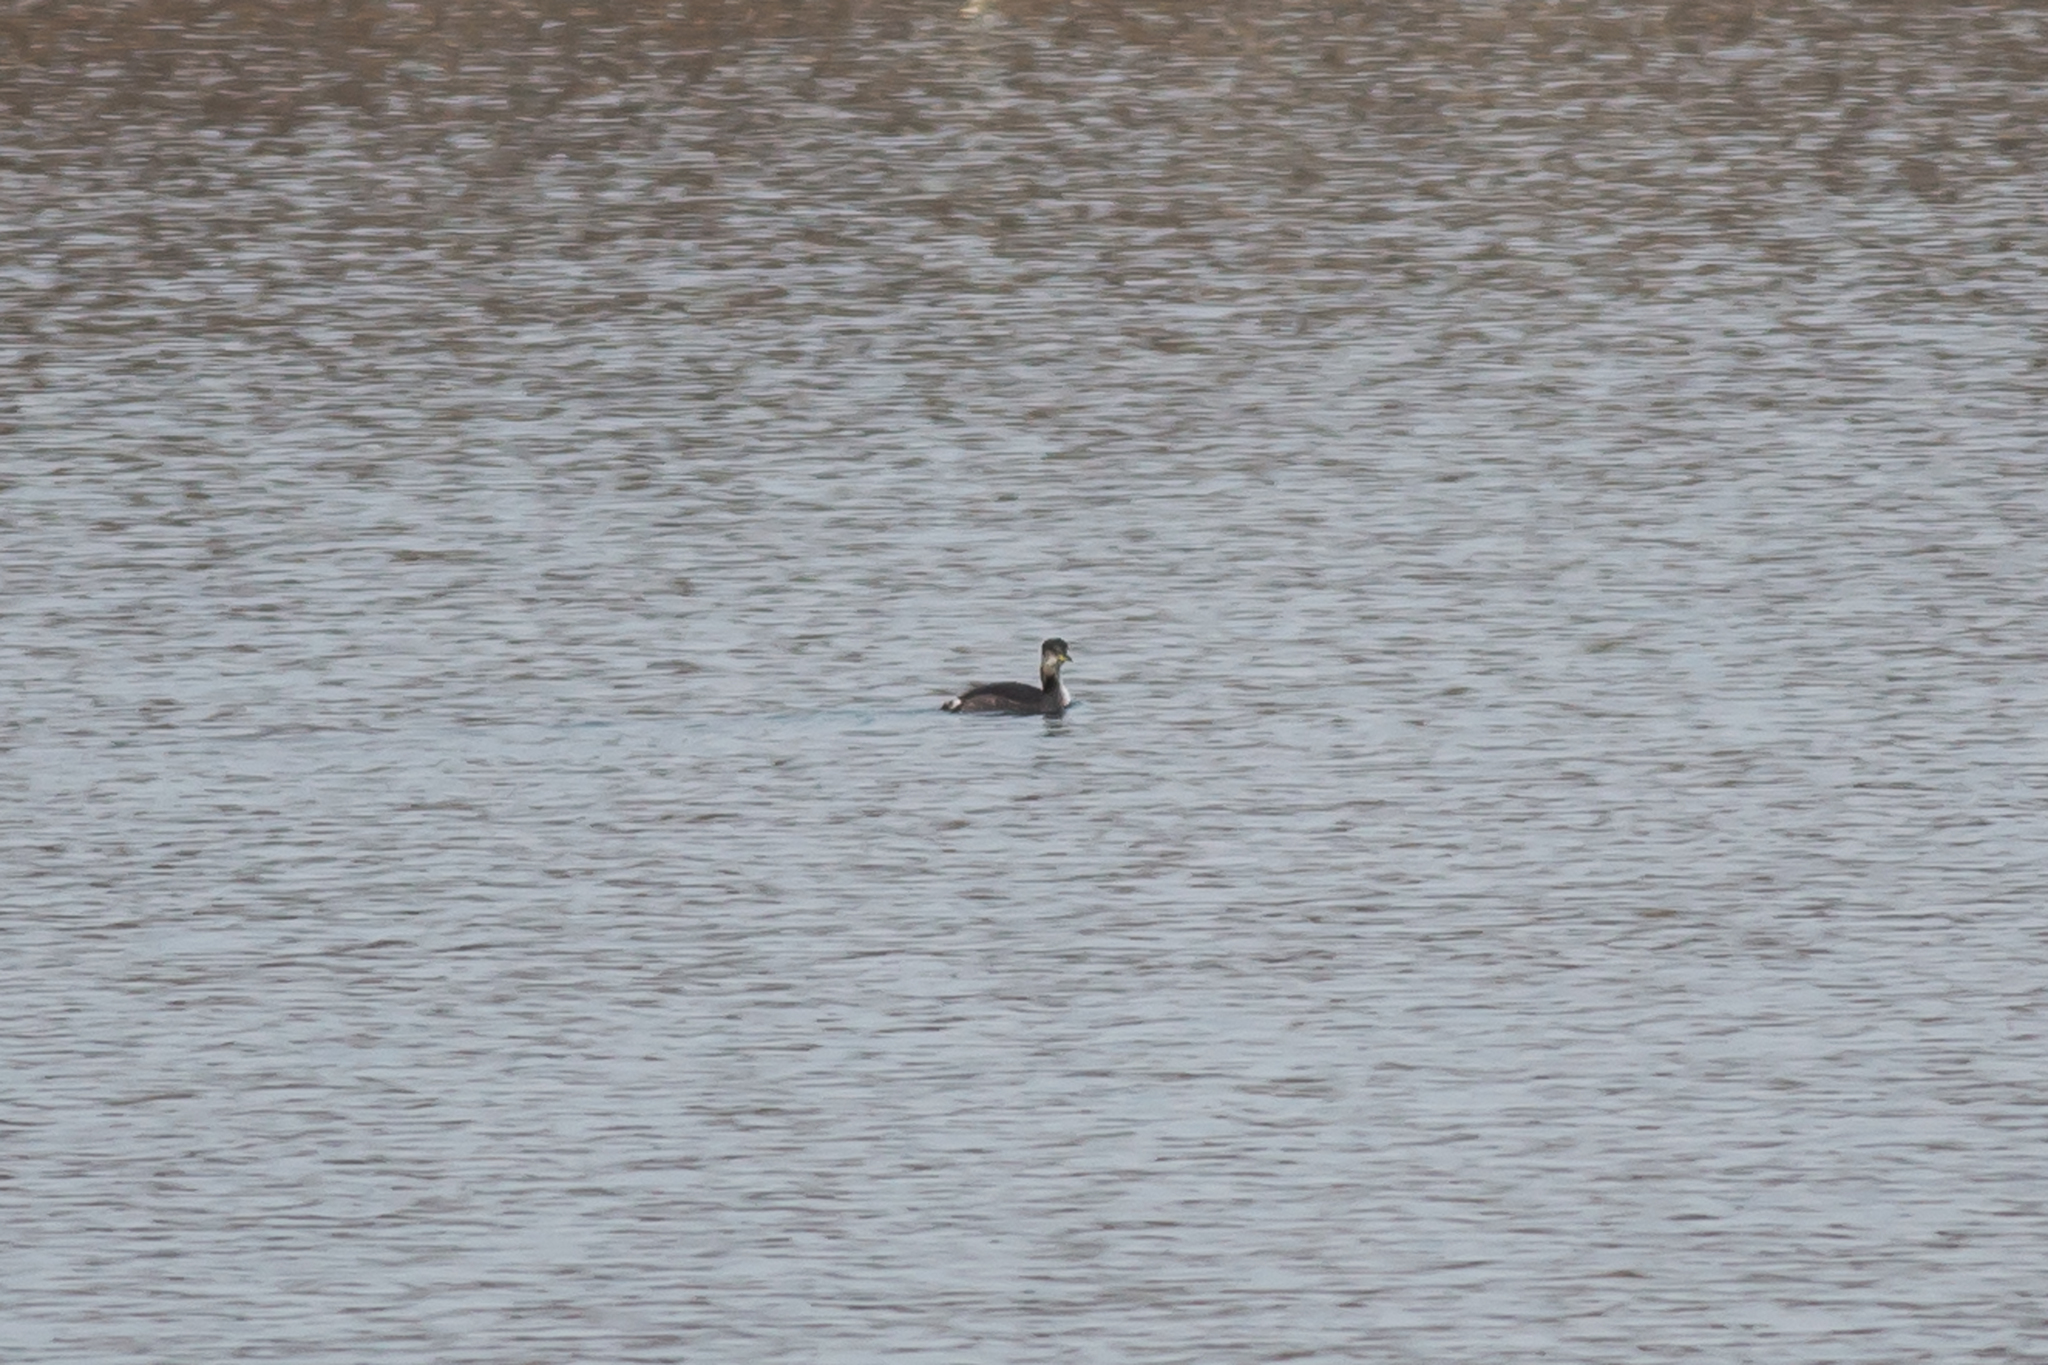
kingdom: Animalia
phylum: Chordata
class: Aves
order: Podicipediformes
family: Podicipedidae
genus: Podiceps
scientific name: Podiceps grisegena
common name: Red-necked grebe
